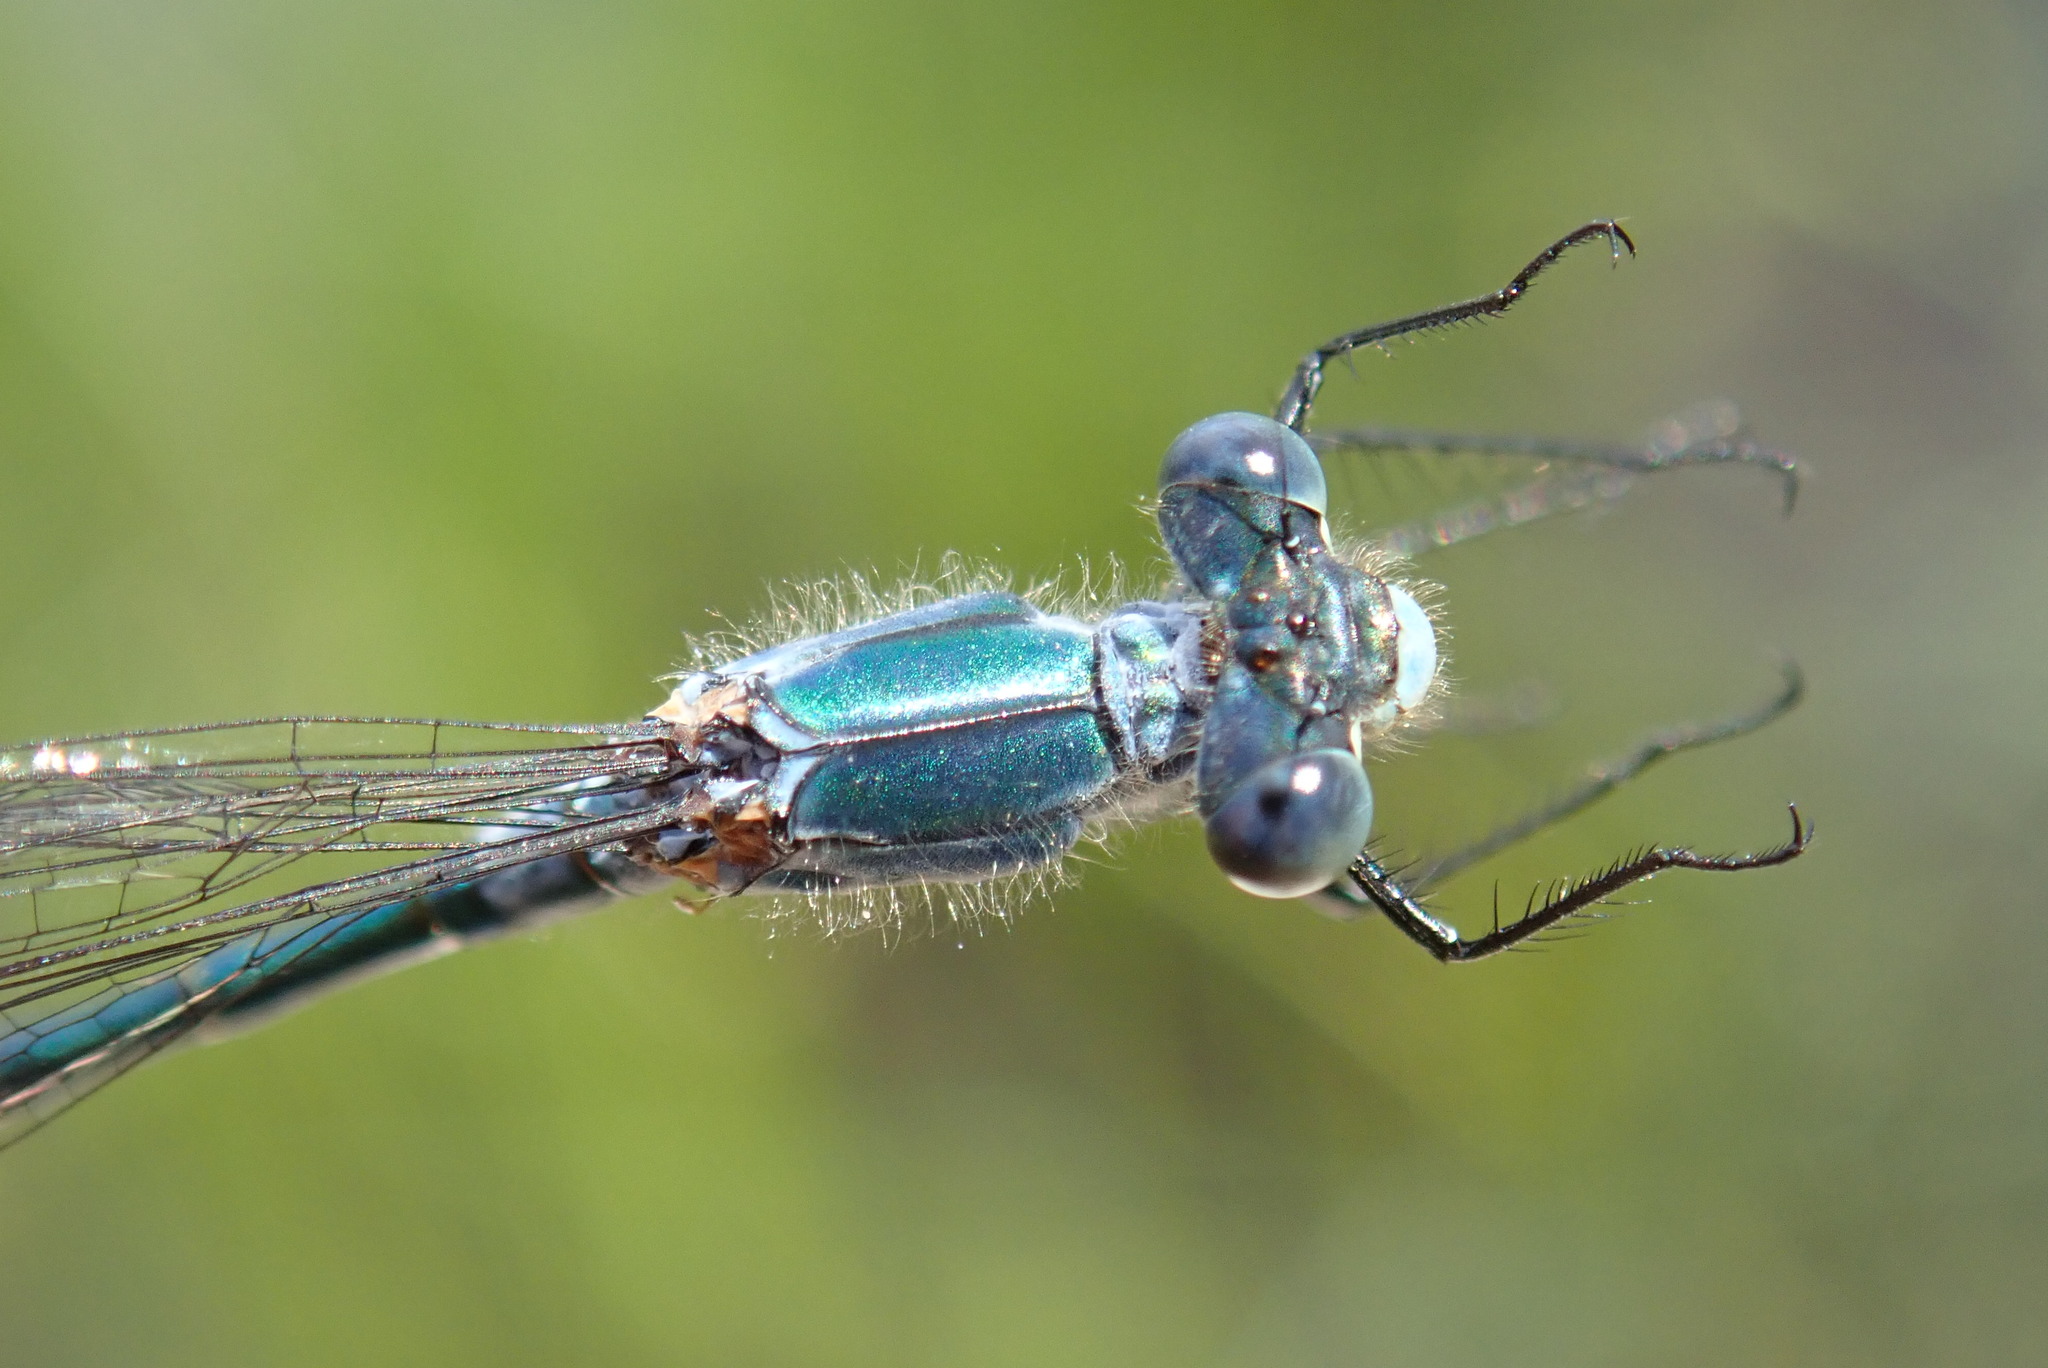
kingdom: Animalia
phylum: Arthropoda
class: Insecta
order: Odonata
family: Lestidae
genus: Lestes
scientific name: Lestes dryas
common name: Scarce emerald damselfly
